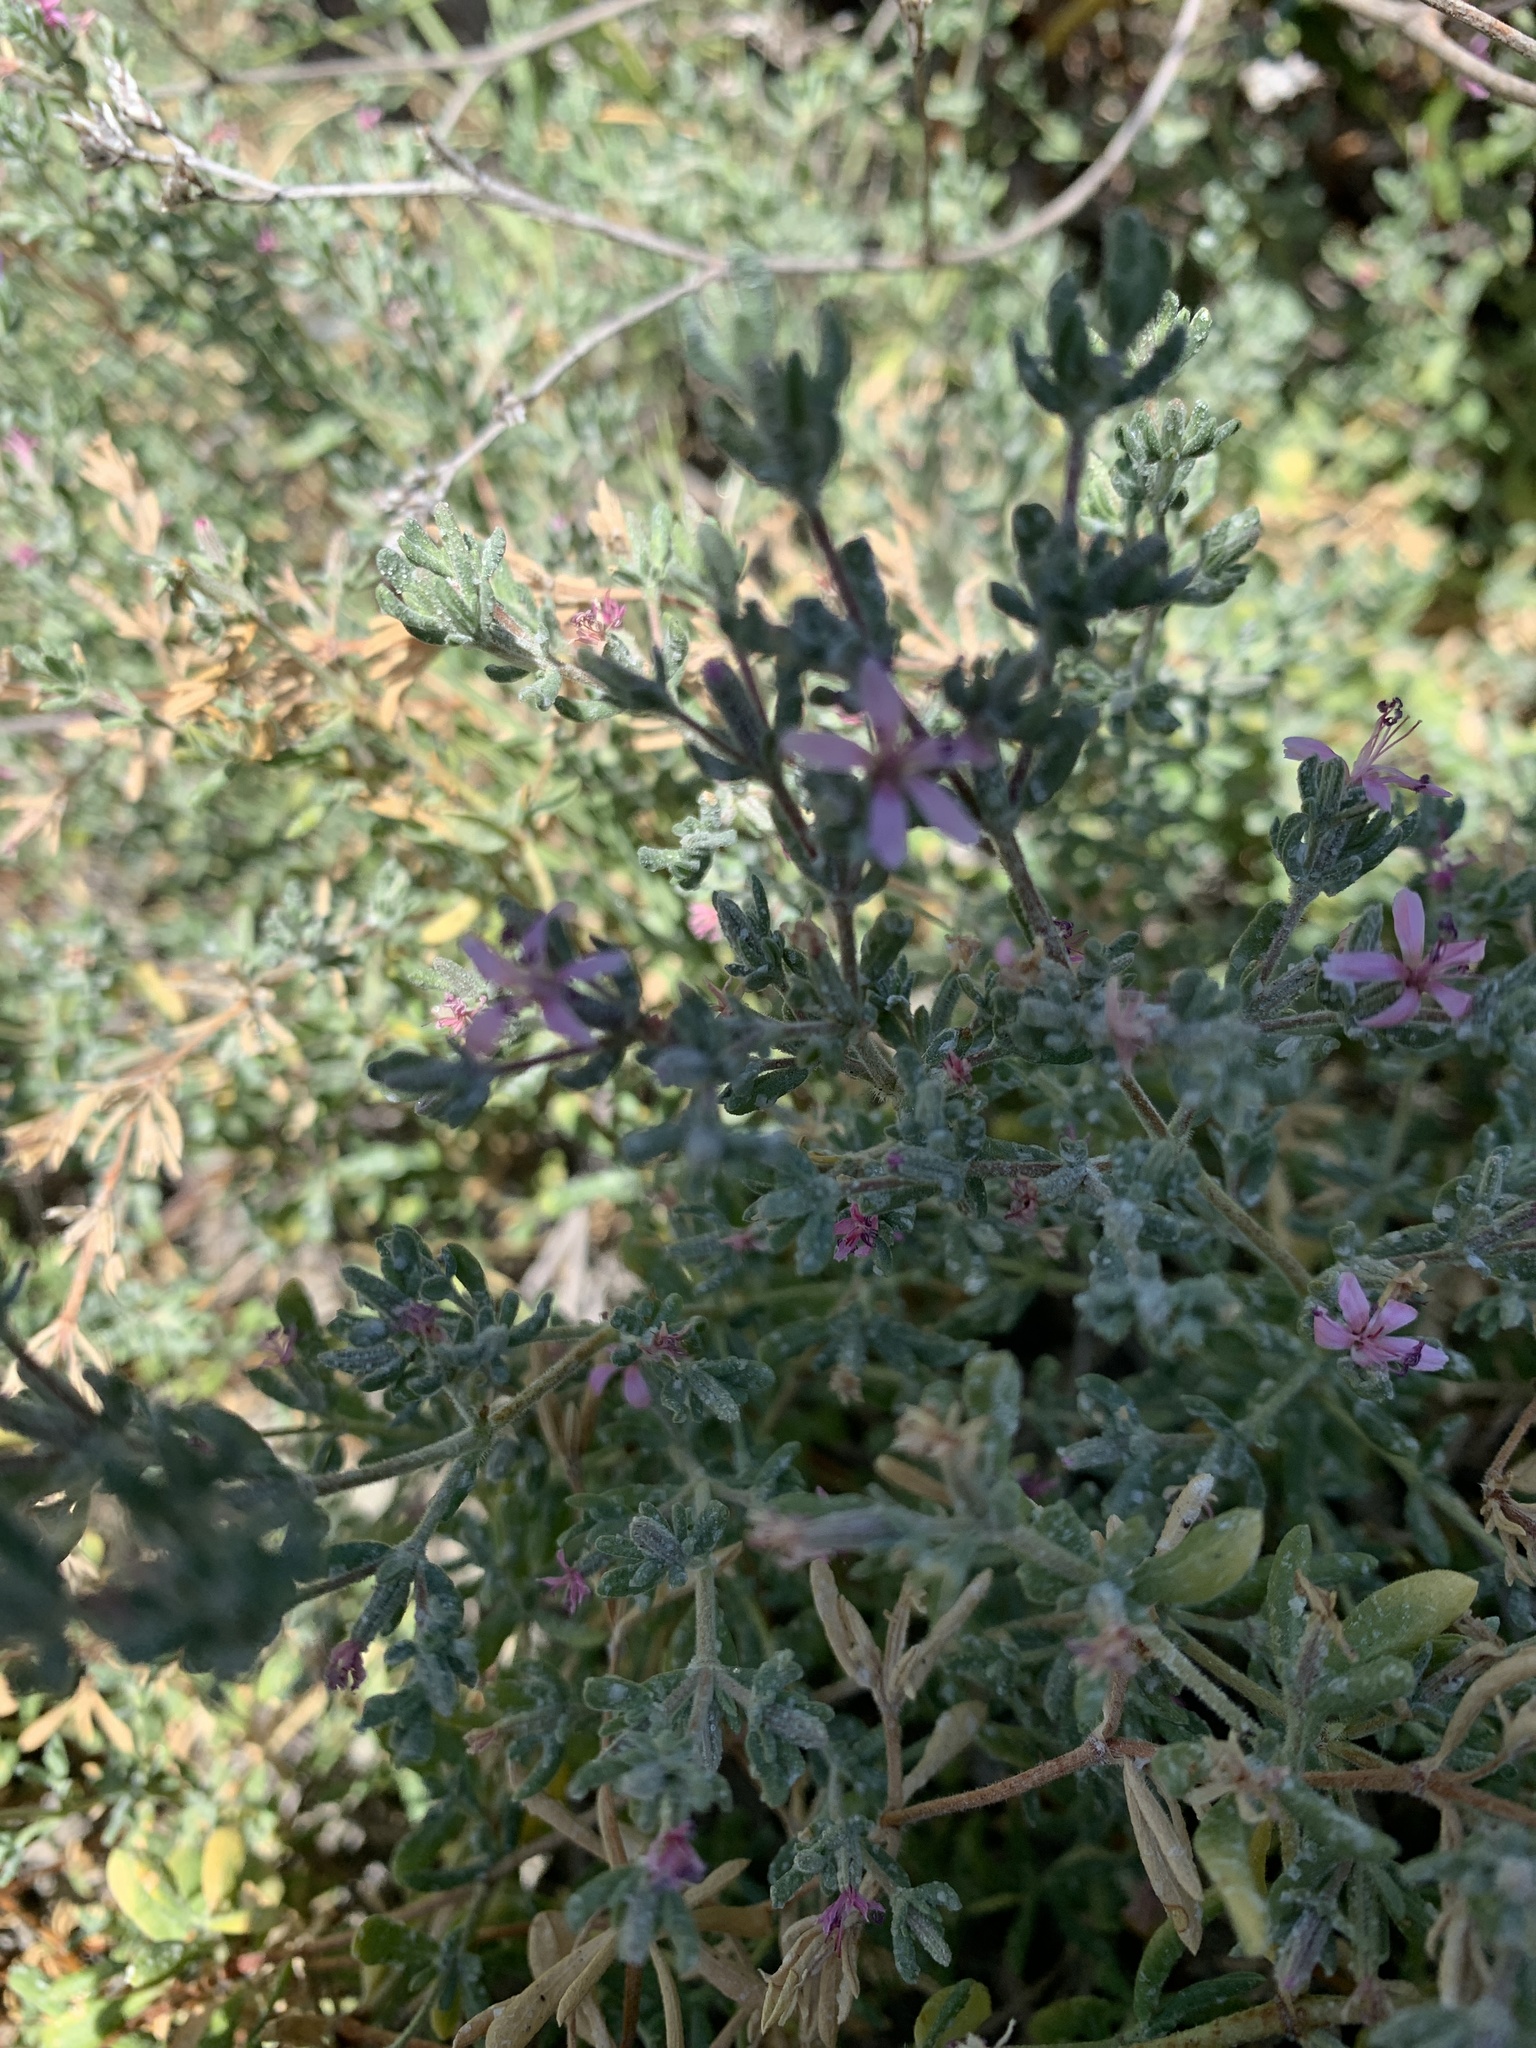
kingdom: Plantae
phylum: Tracheophyta
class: Magnoliopsida
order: Caryophyllales
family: Frankeniaceae
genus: Frankenia
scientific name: Frankenia salina
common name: Alkali seaheath
